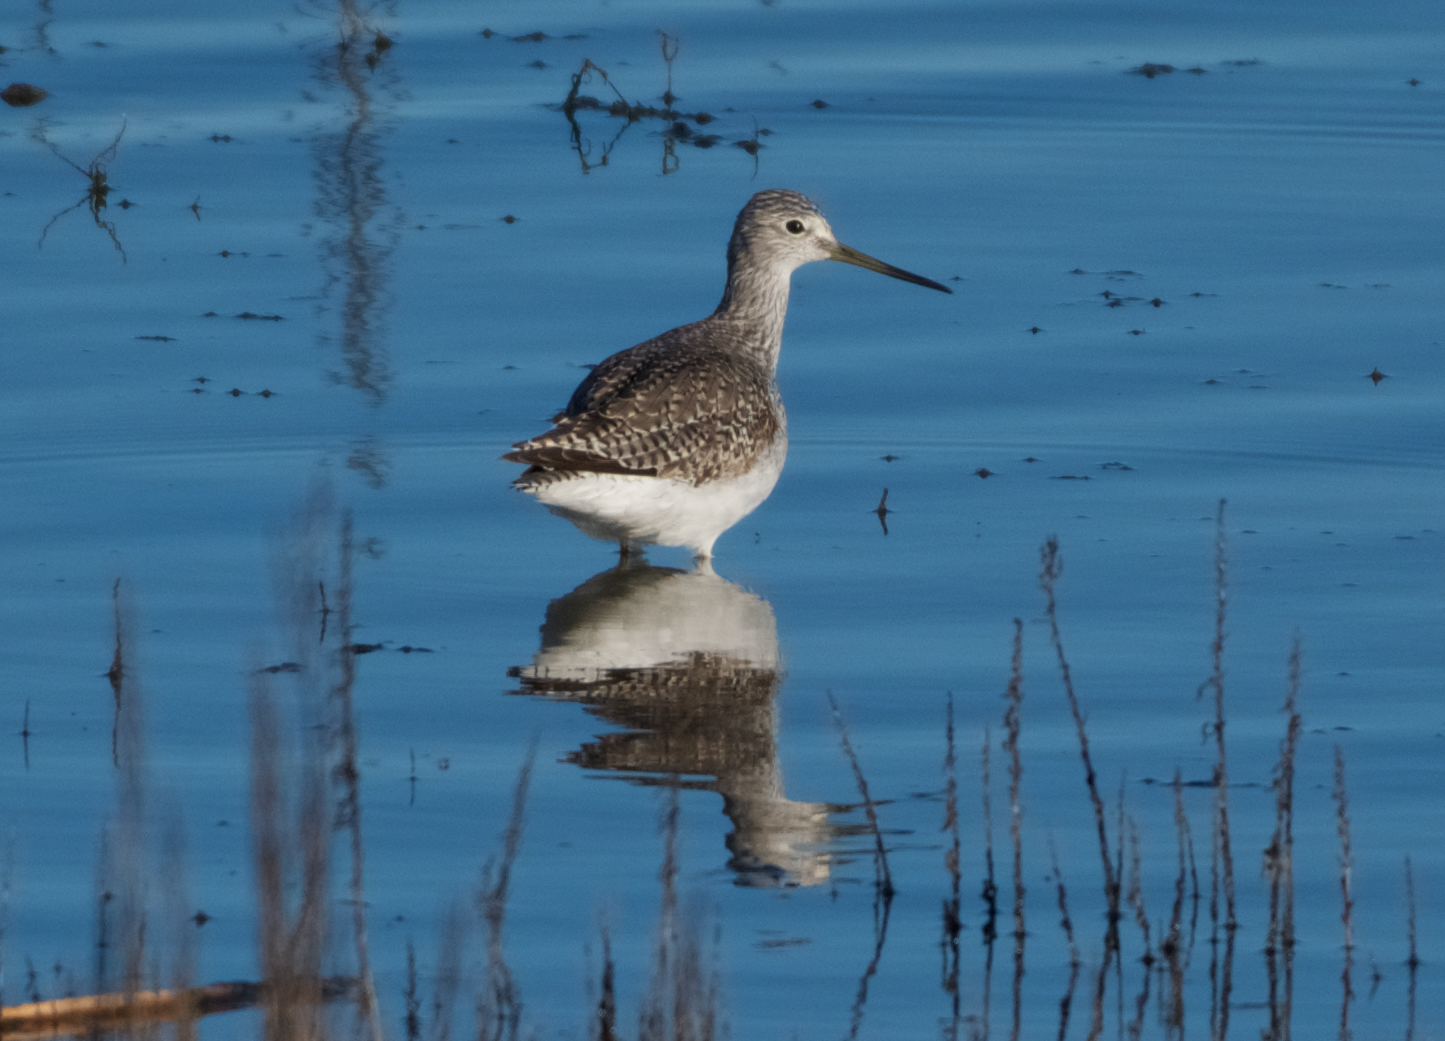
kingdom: Animalia
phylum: Chordata
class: Aves
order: Charadriiformes
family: Scolopacidae
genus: Tringa
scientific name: Tringa melanoleuca
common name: Greater yellowlegs
